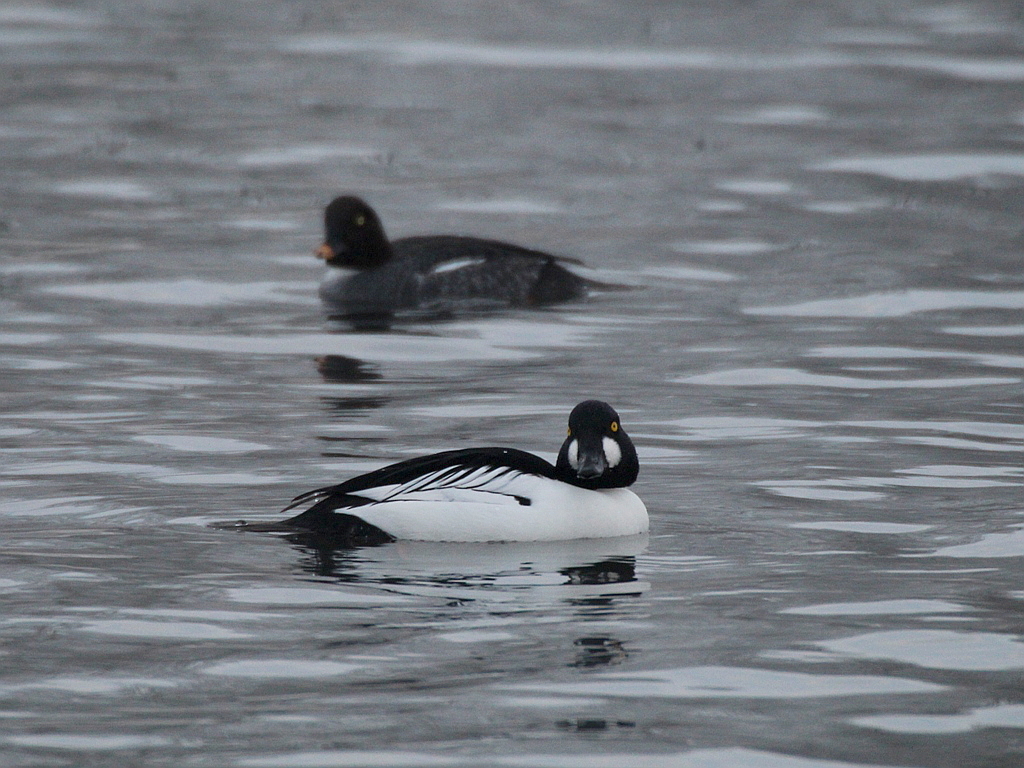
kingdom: Animalia
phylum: Chordata
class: Aves
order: Anseriformes
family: Anatidae
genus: Bucephala
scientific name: Bucephala clangula
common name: Common goldeneye
